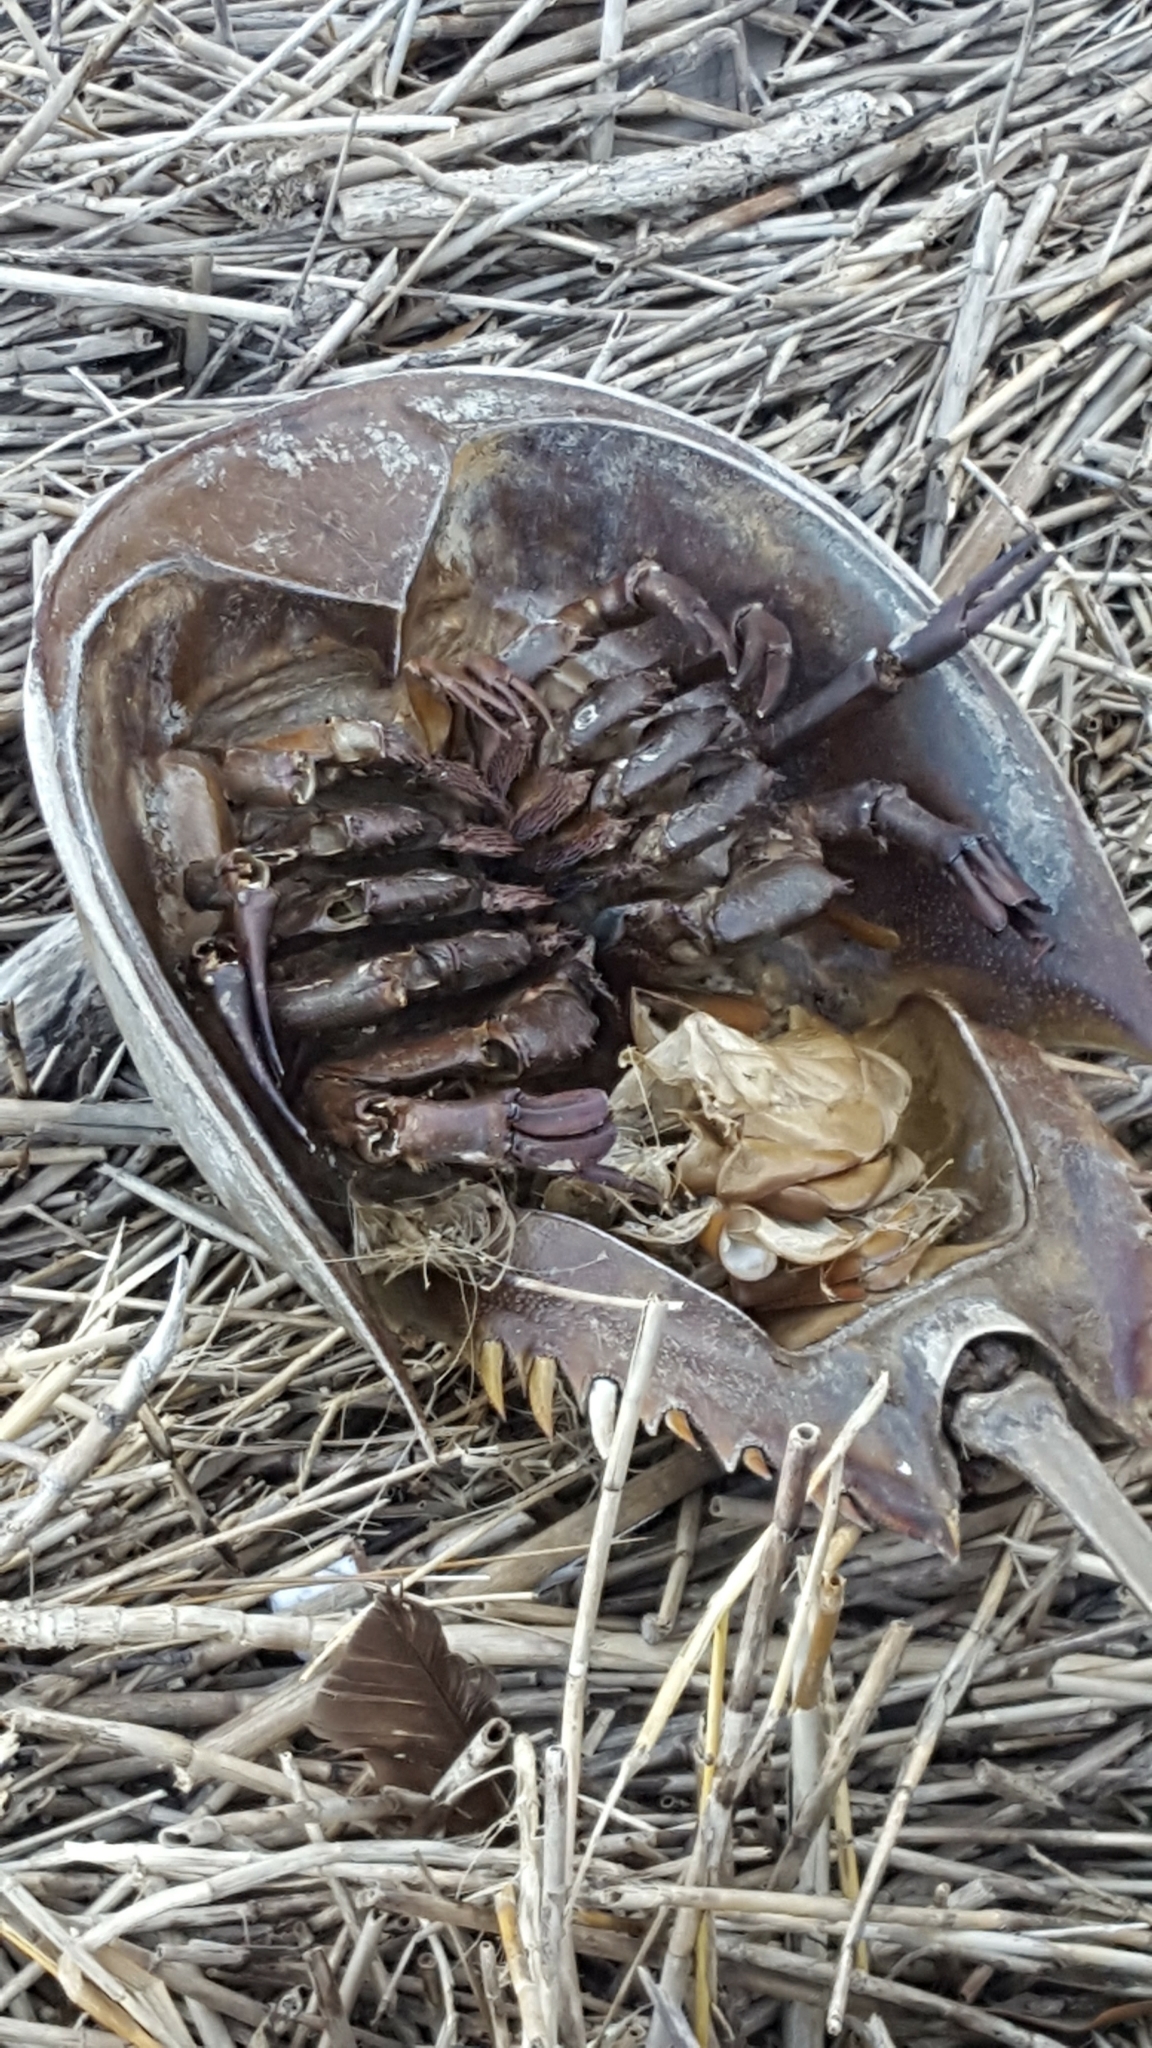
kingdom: Animalia
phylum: Arthropoda
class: Merostomata
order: Xiphosurida
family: Limulidae
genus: Limulus
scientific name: Limulus polyphemus
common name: Horseshoe crab
